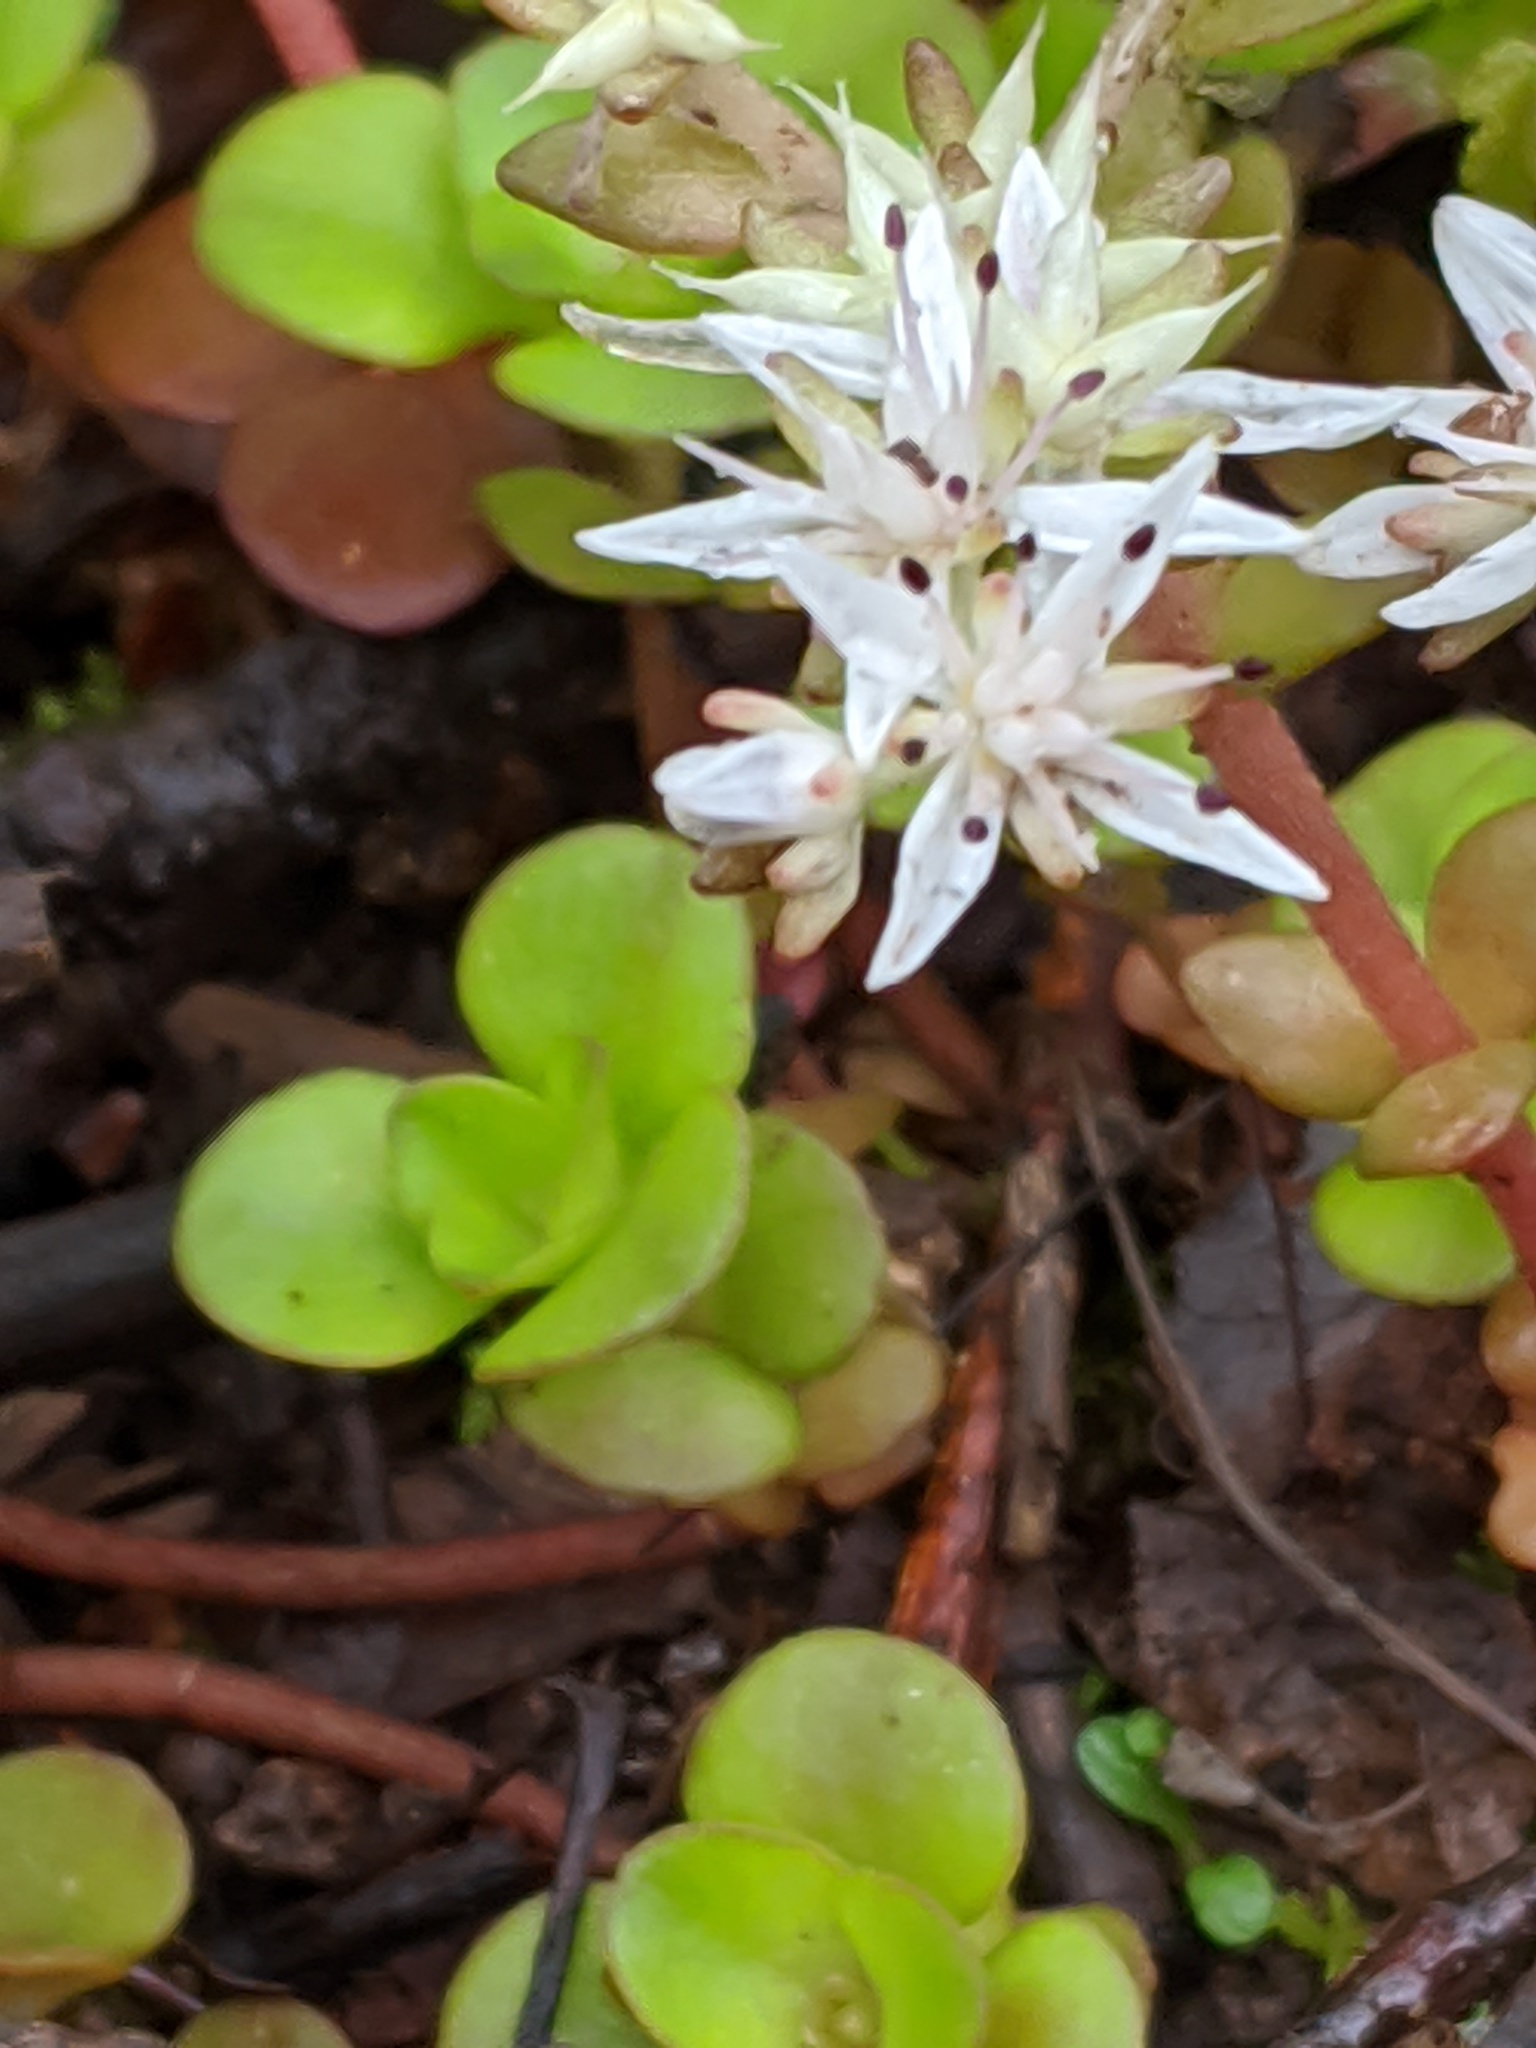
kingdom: Plantae
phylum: Tracheophyta
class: Magnoliopsida
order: Saxifragales
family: Crassulaceae
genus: Sedum
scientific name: Sedum ternatum
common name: Wild stonecrop
